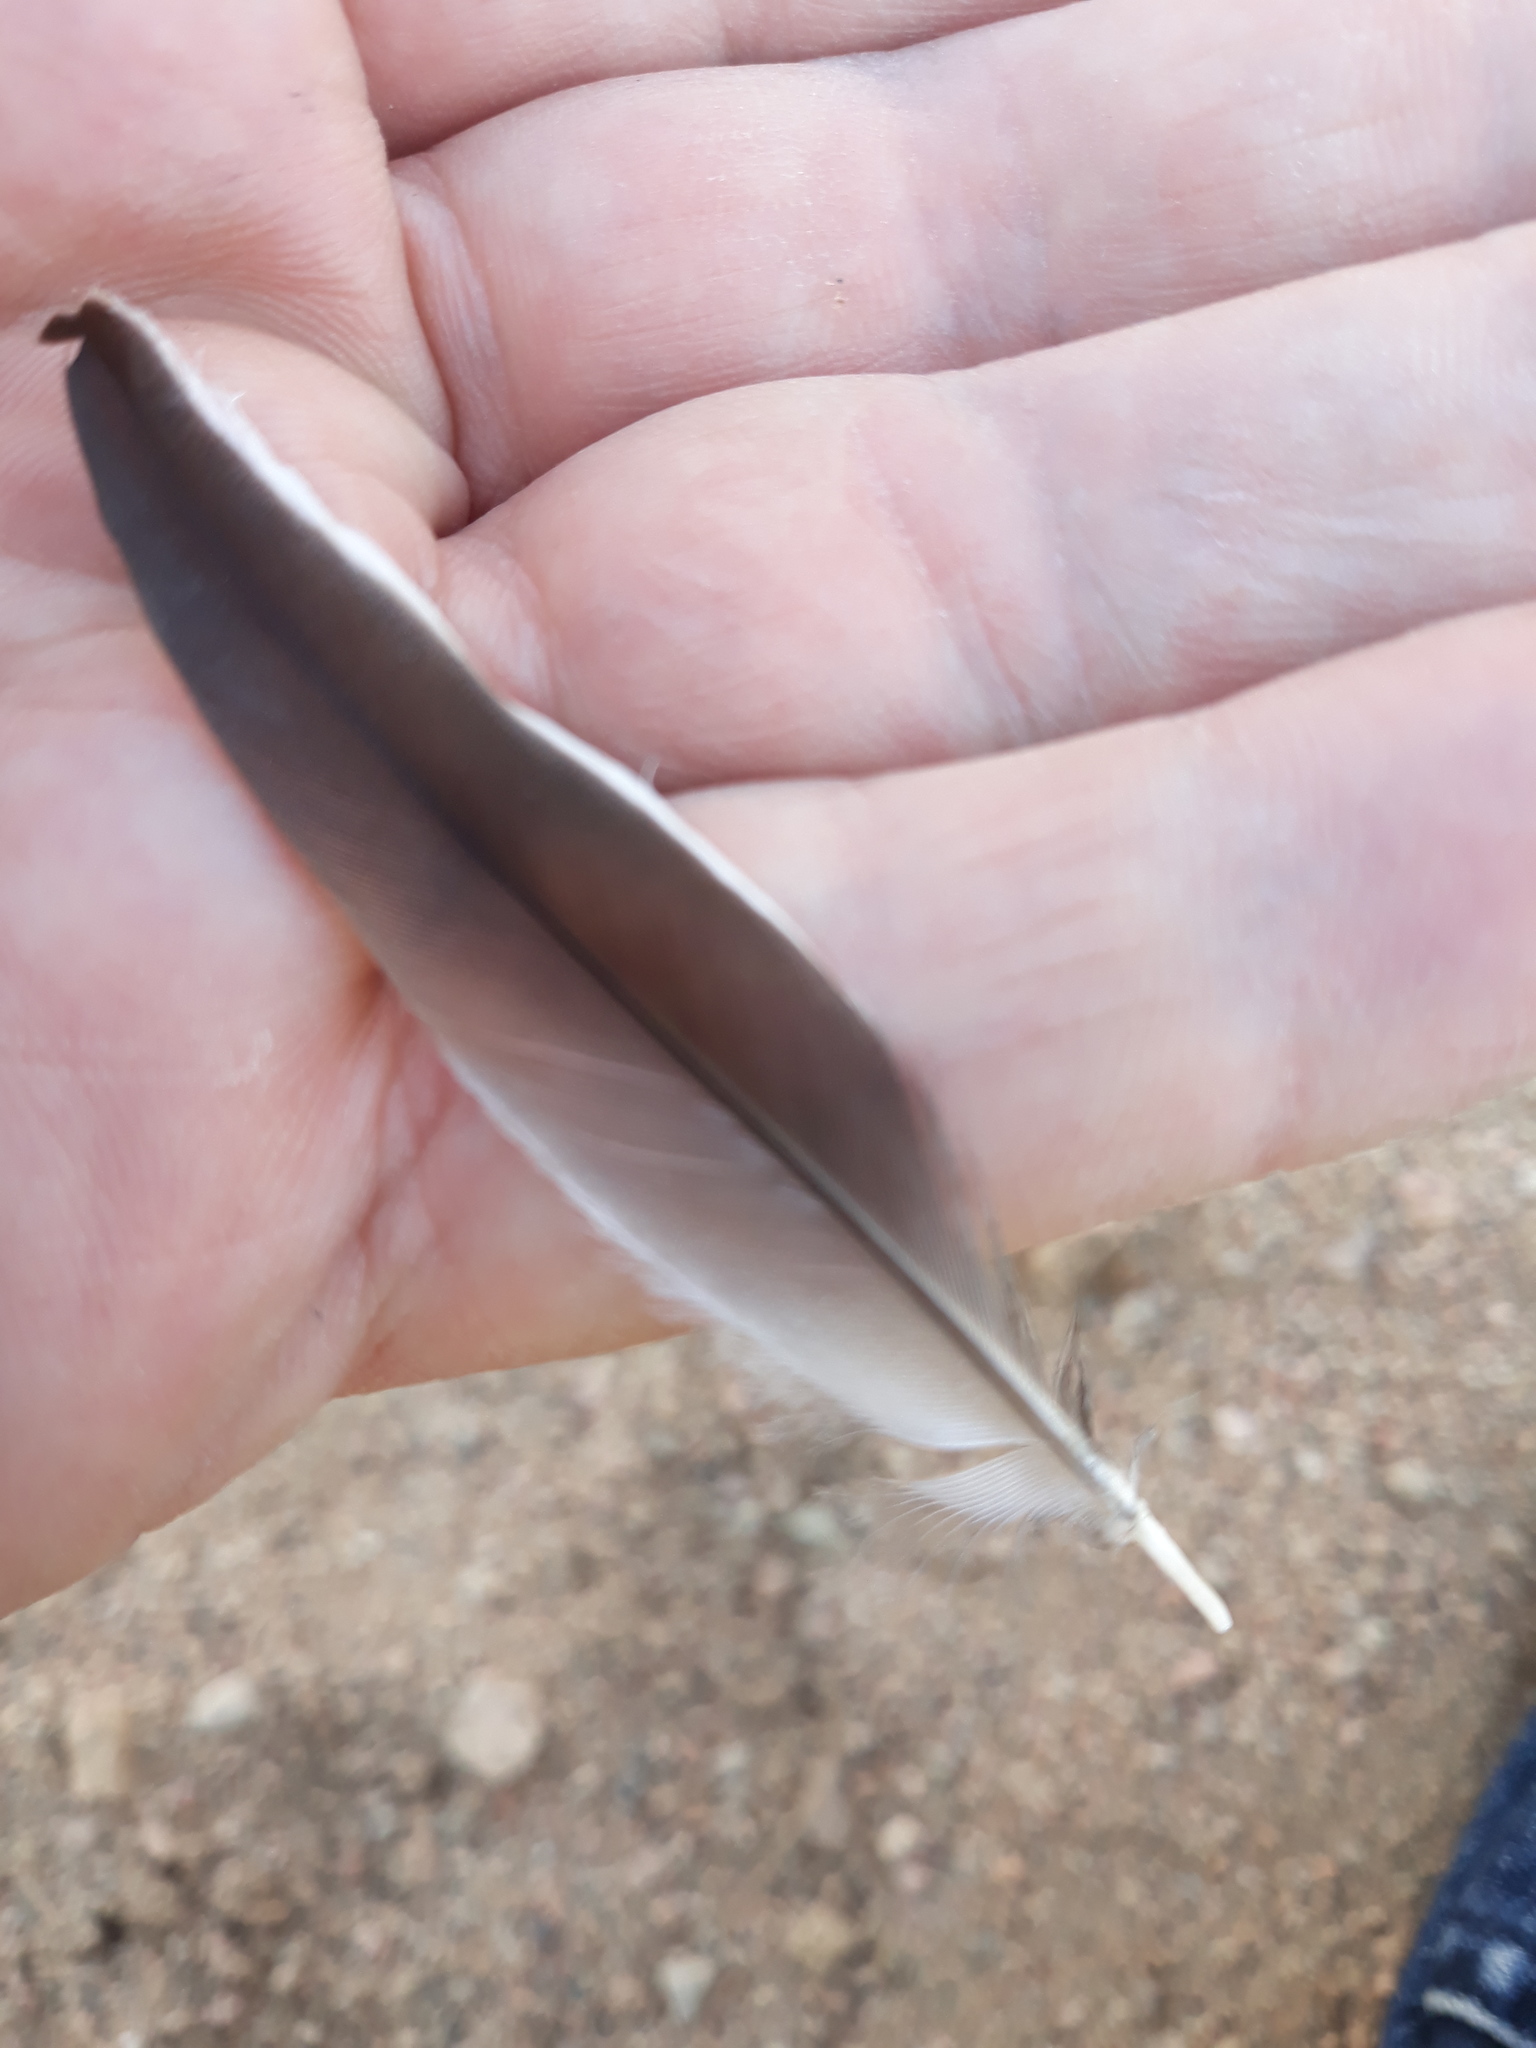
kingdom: Animalia
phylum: Chordata
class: Aves
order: Passeriformes
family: Motacillidae
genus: Motacilla
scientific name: Motacilla alba
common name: White wagtail
